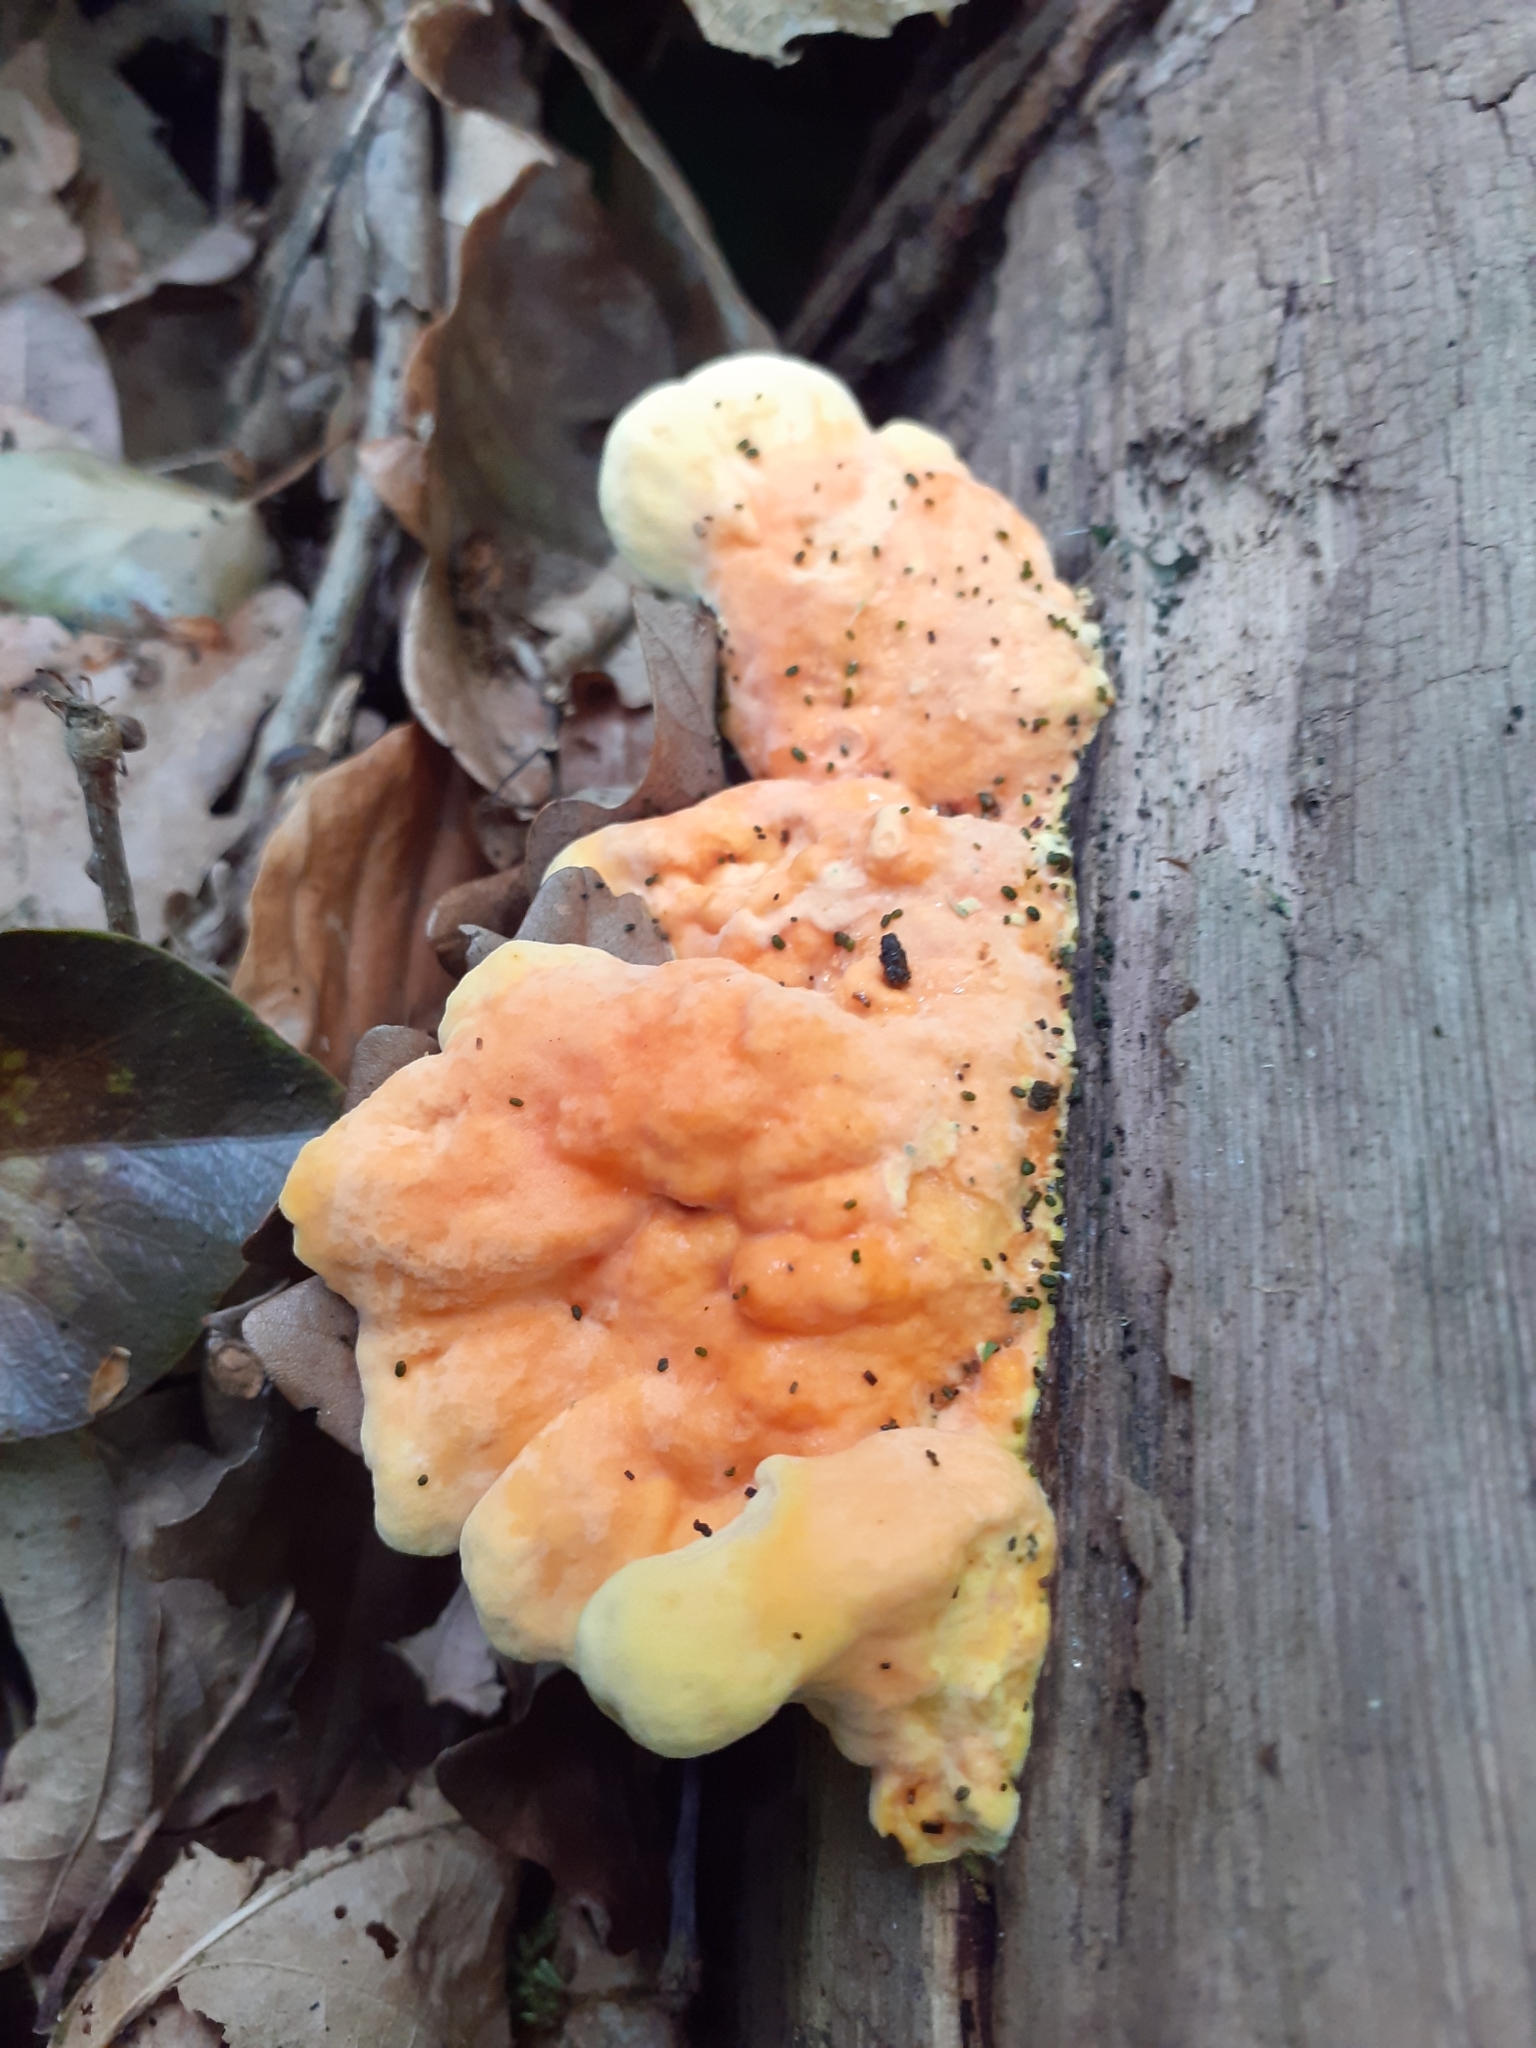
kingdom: Fungi
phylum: Basidiomycota
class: Agaricomycetes
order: Polyporales
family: Laetiporaceae
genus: Laetiporus
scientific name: Laetiporus sulphureus
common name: Chicken of the woods
